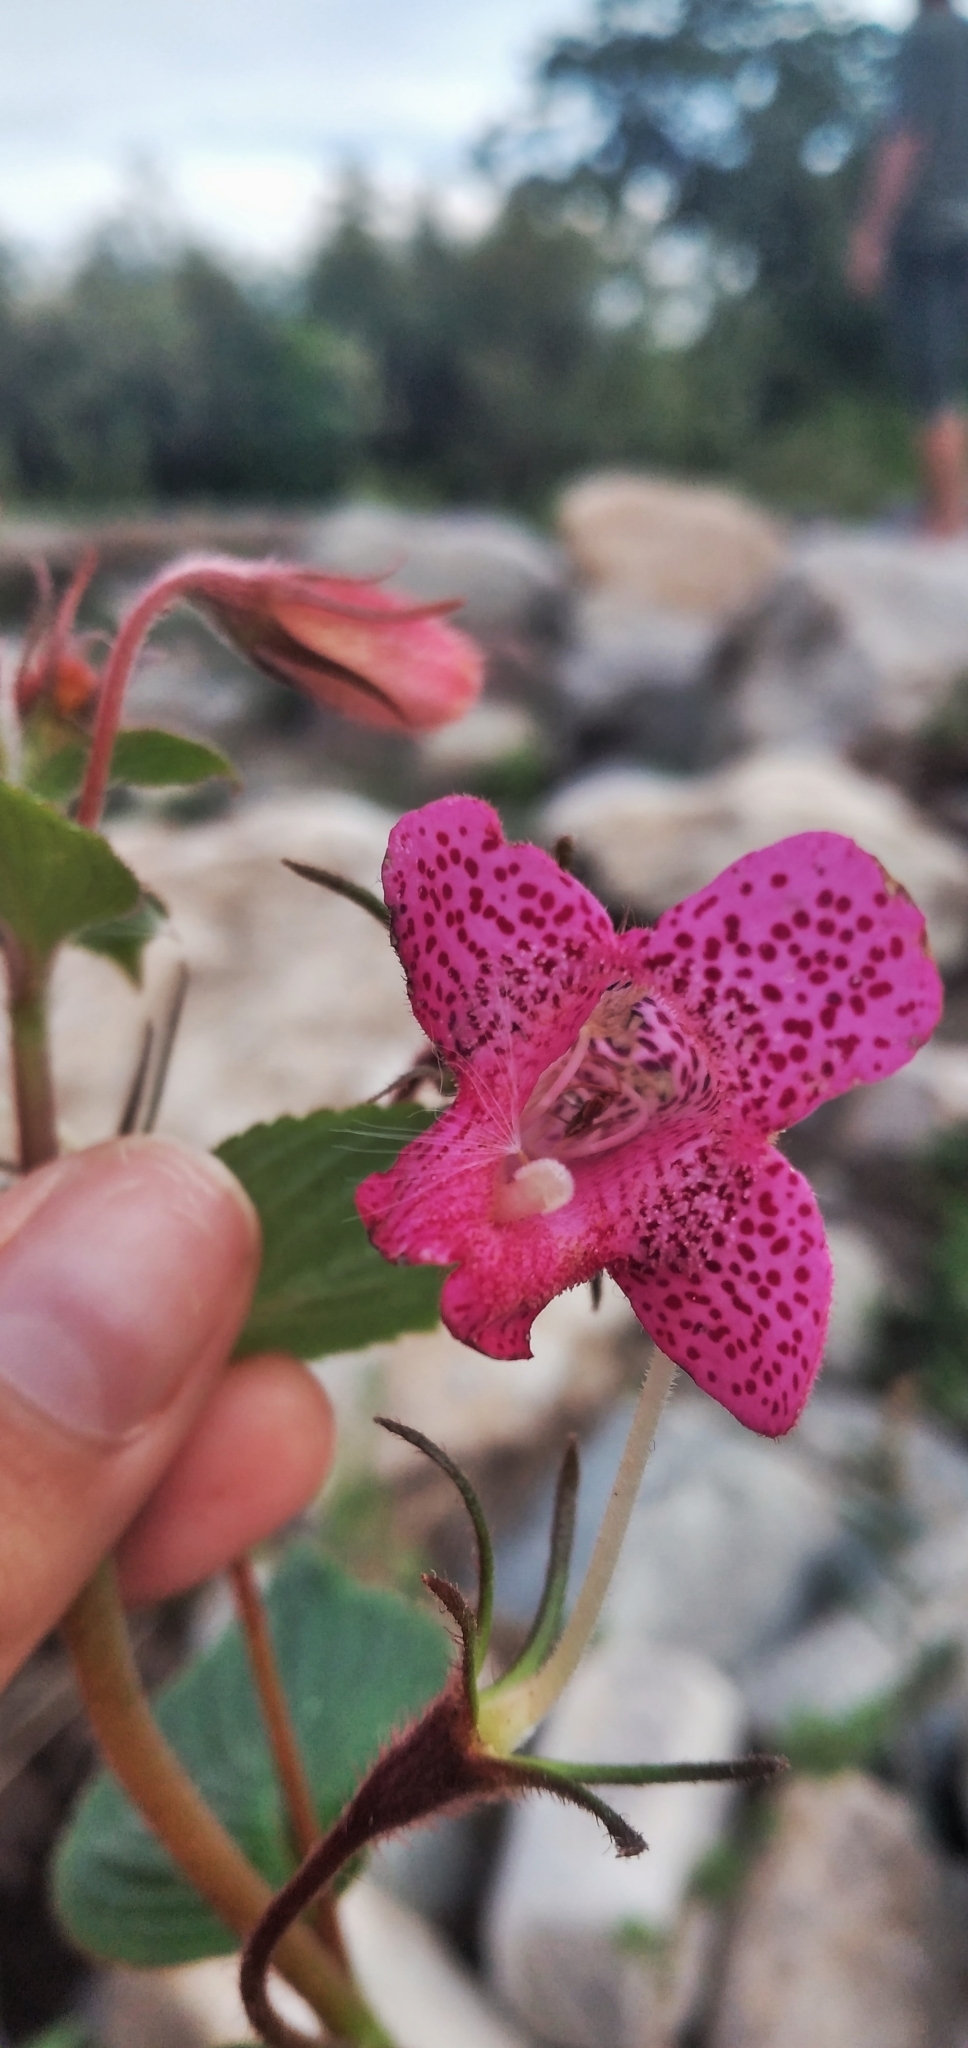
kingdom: Plantae
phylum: Tracheophyta
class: Magnoliopsida
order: Lamiales
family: Gesneriaceae
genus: Seemannia
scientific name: Seemannia gymnostoma
